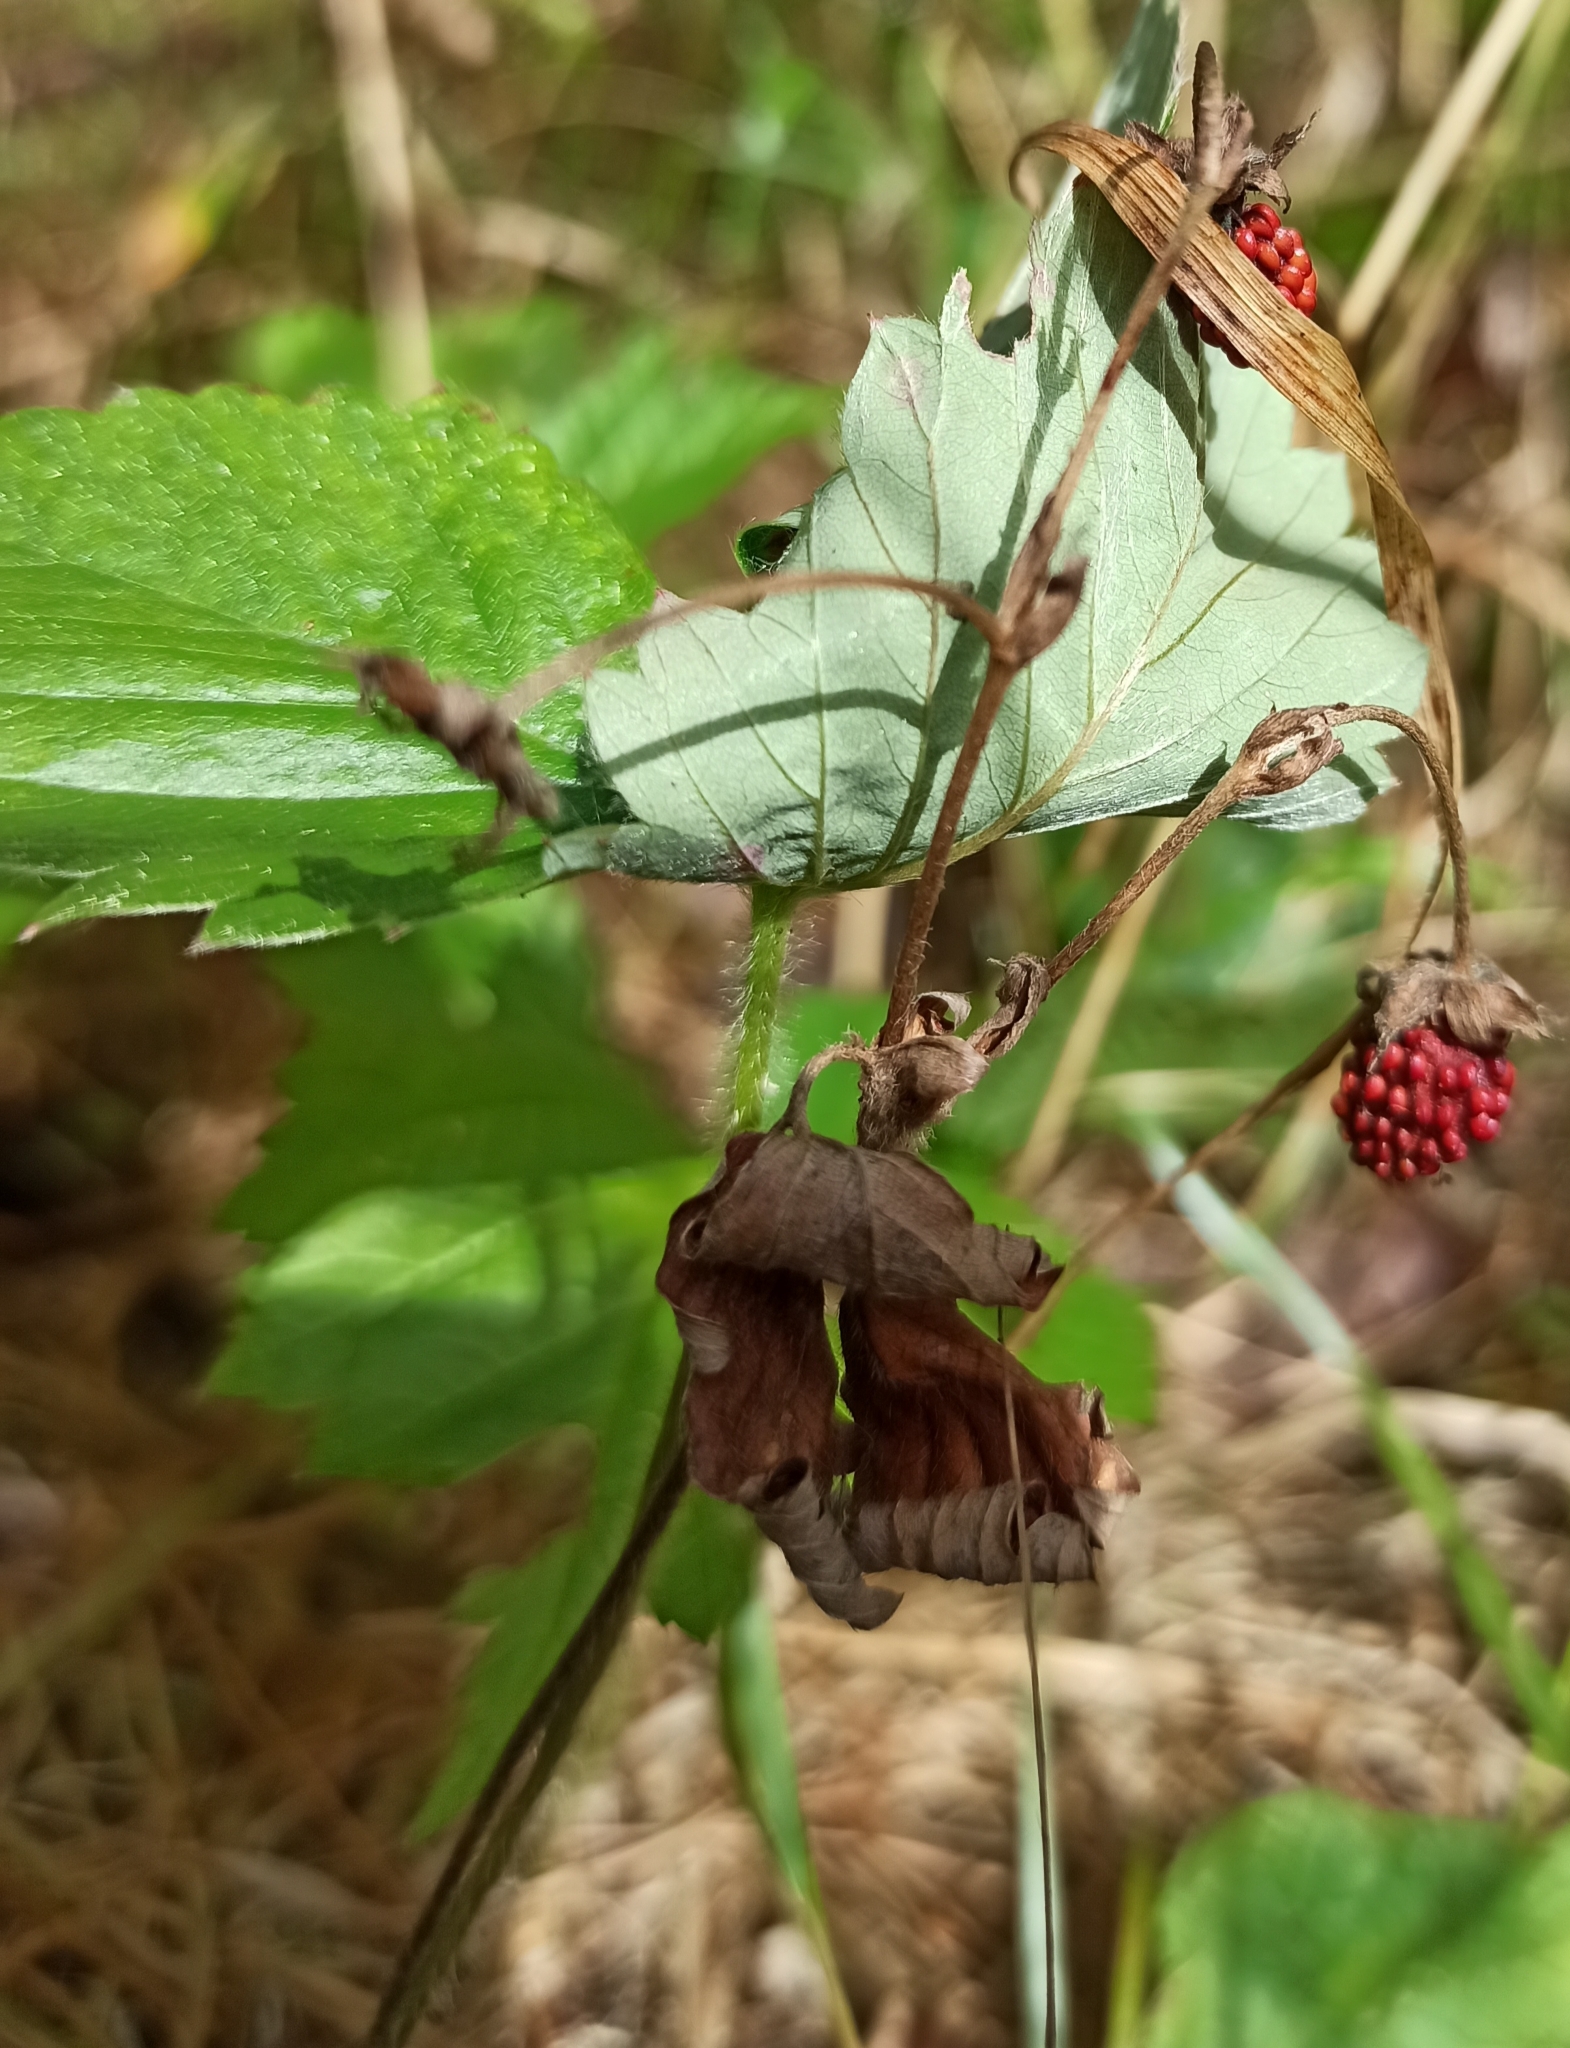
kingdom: Plantae
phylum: Tracheophyta
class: Magnoliopsida
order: Rosales
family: Rosaceae
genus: Fragaria
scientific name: Fragaria vesca
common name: Wild strawberry
